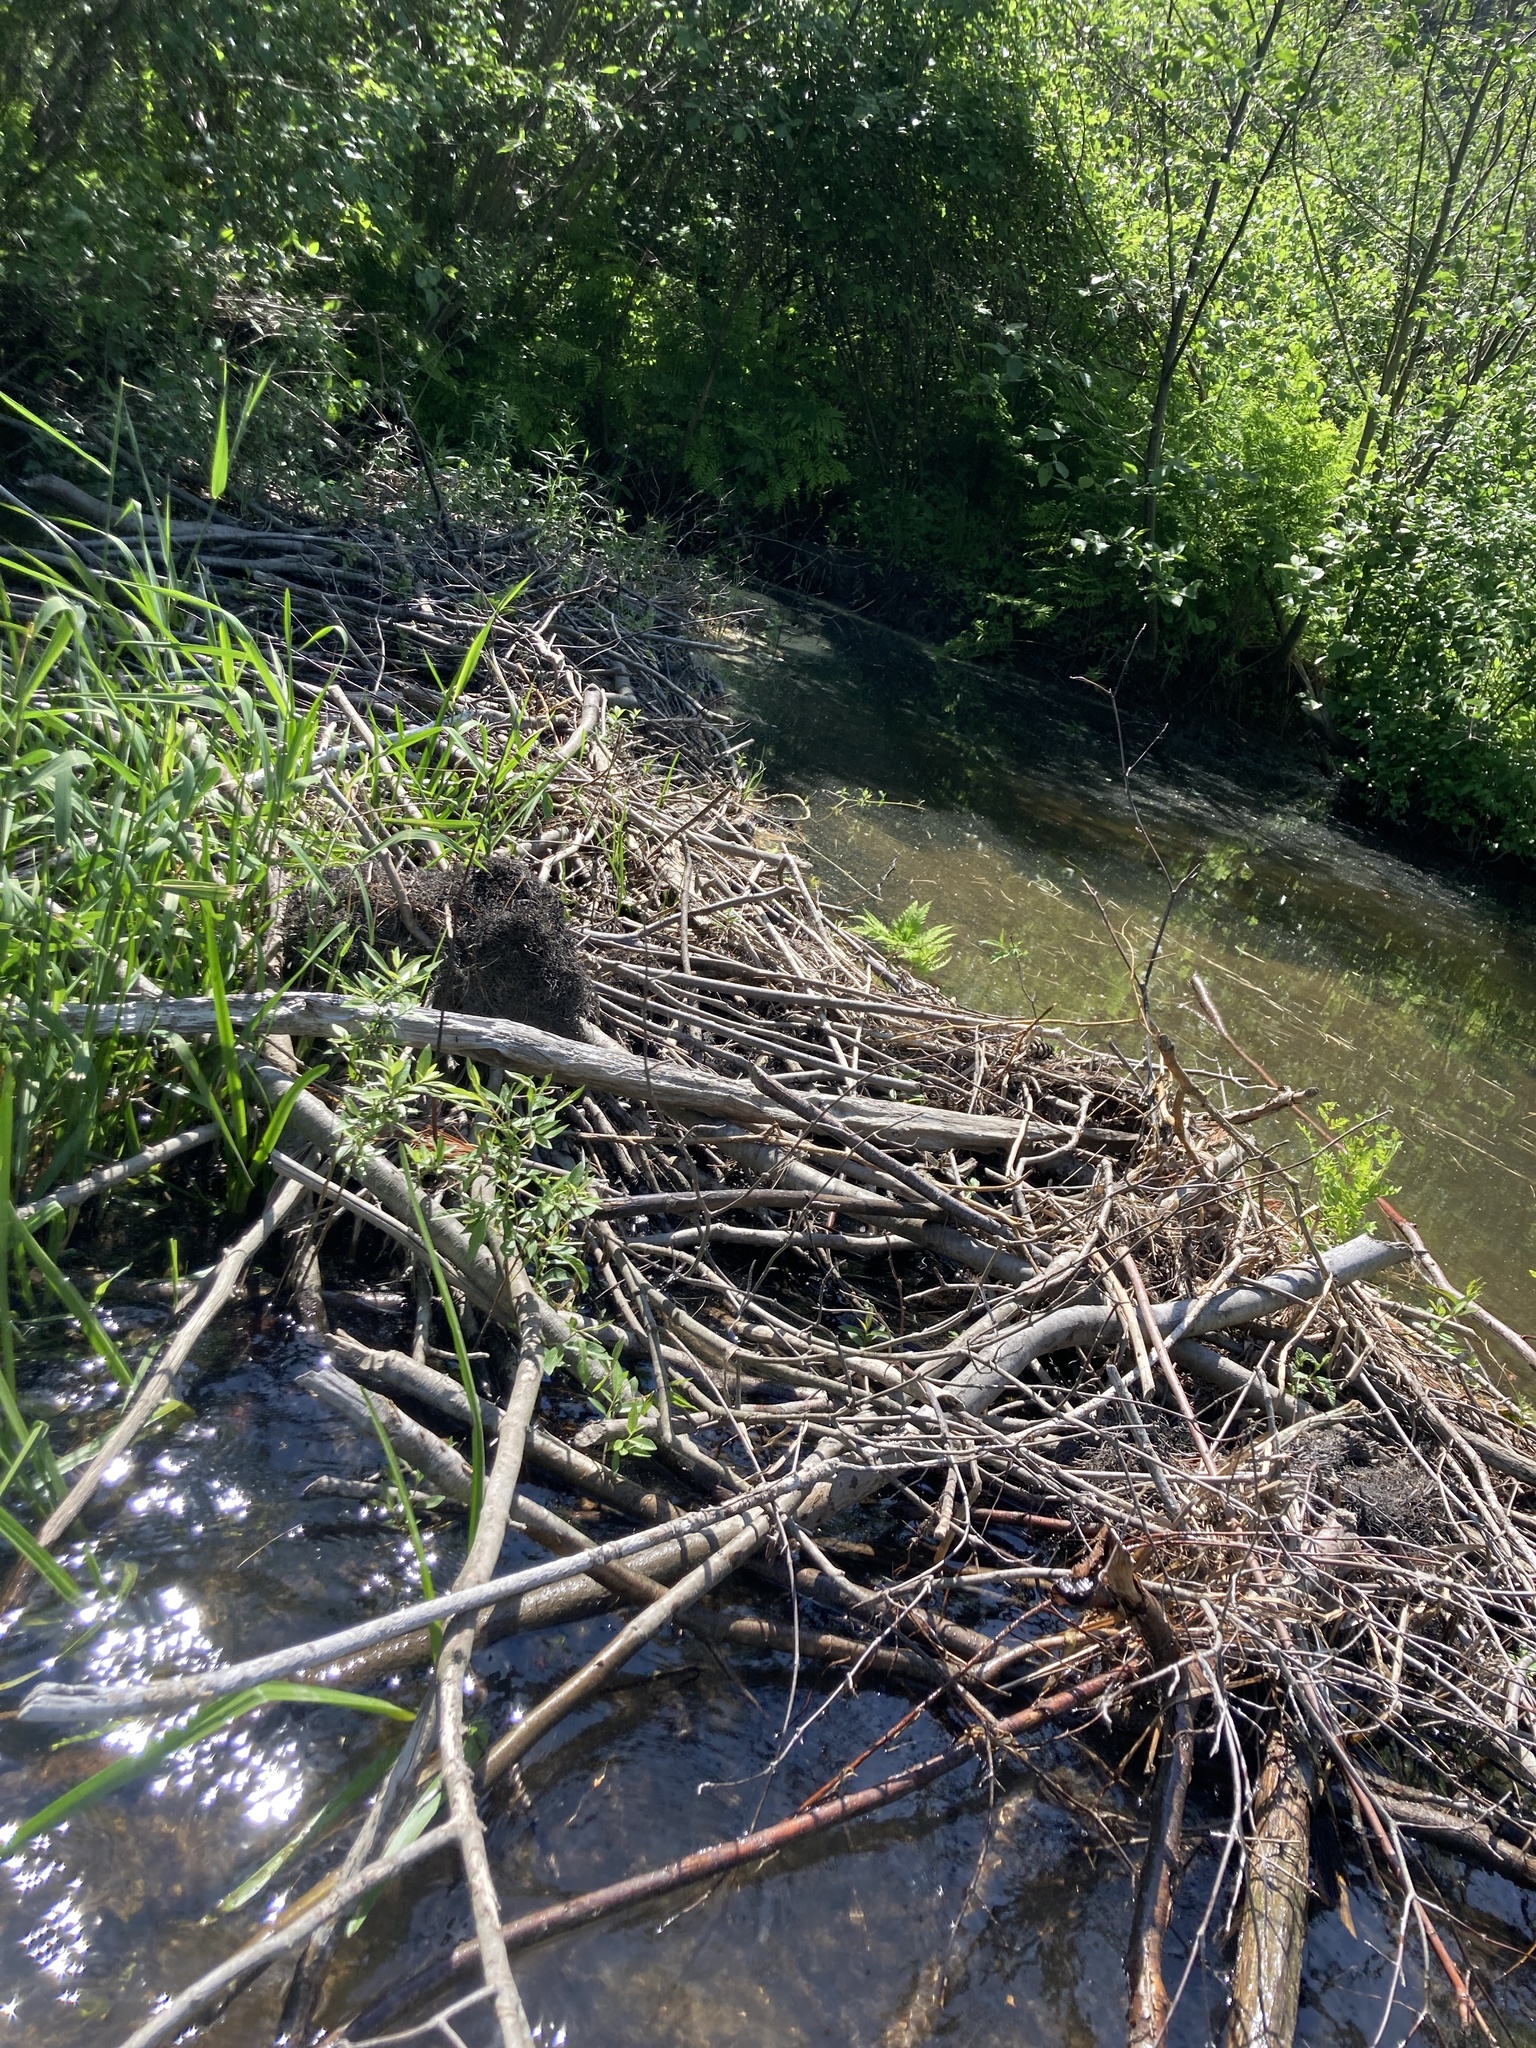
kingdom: Animalia
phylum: Chordata
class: Mammalia
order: Rodentia
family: Castoridae
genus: Castor
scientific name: Castor canadensis
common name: American beaver
